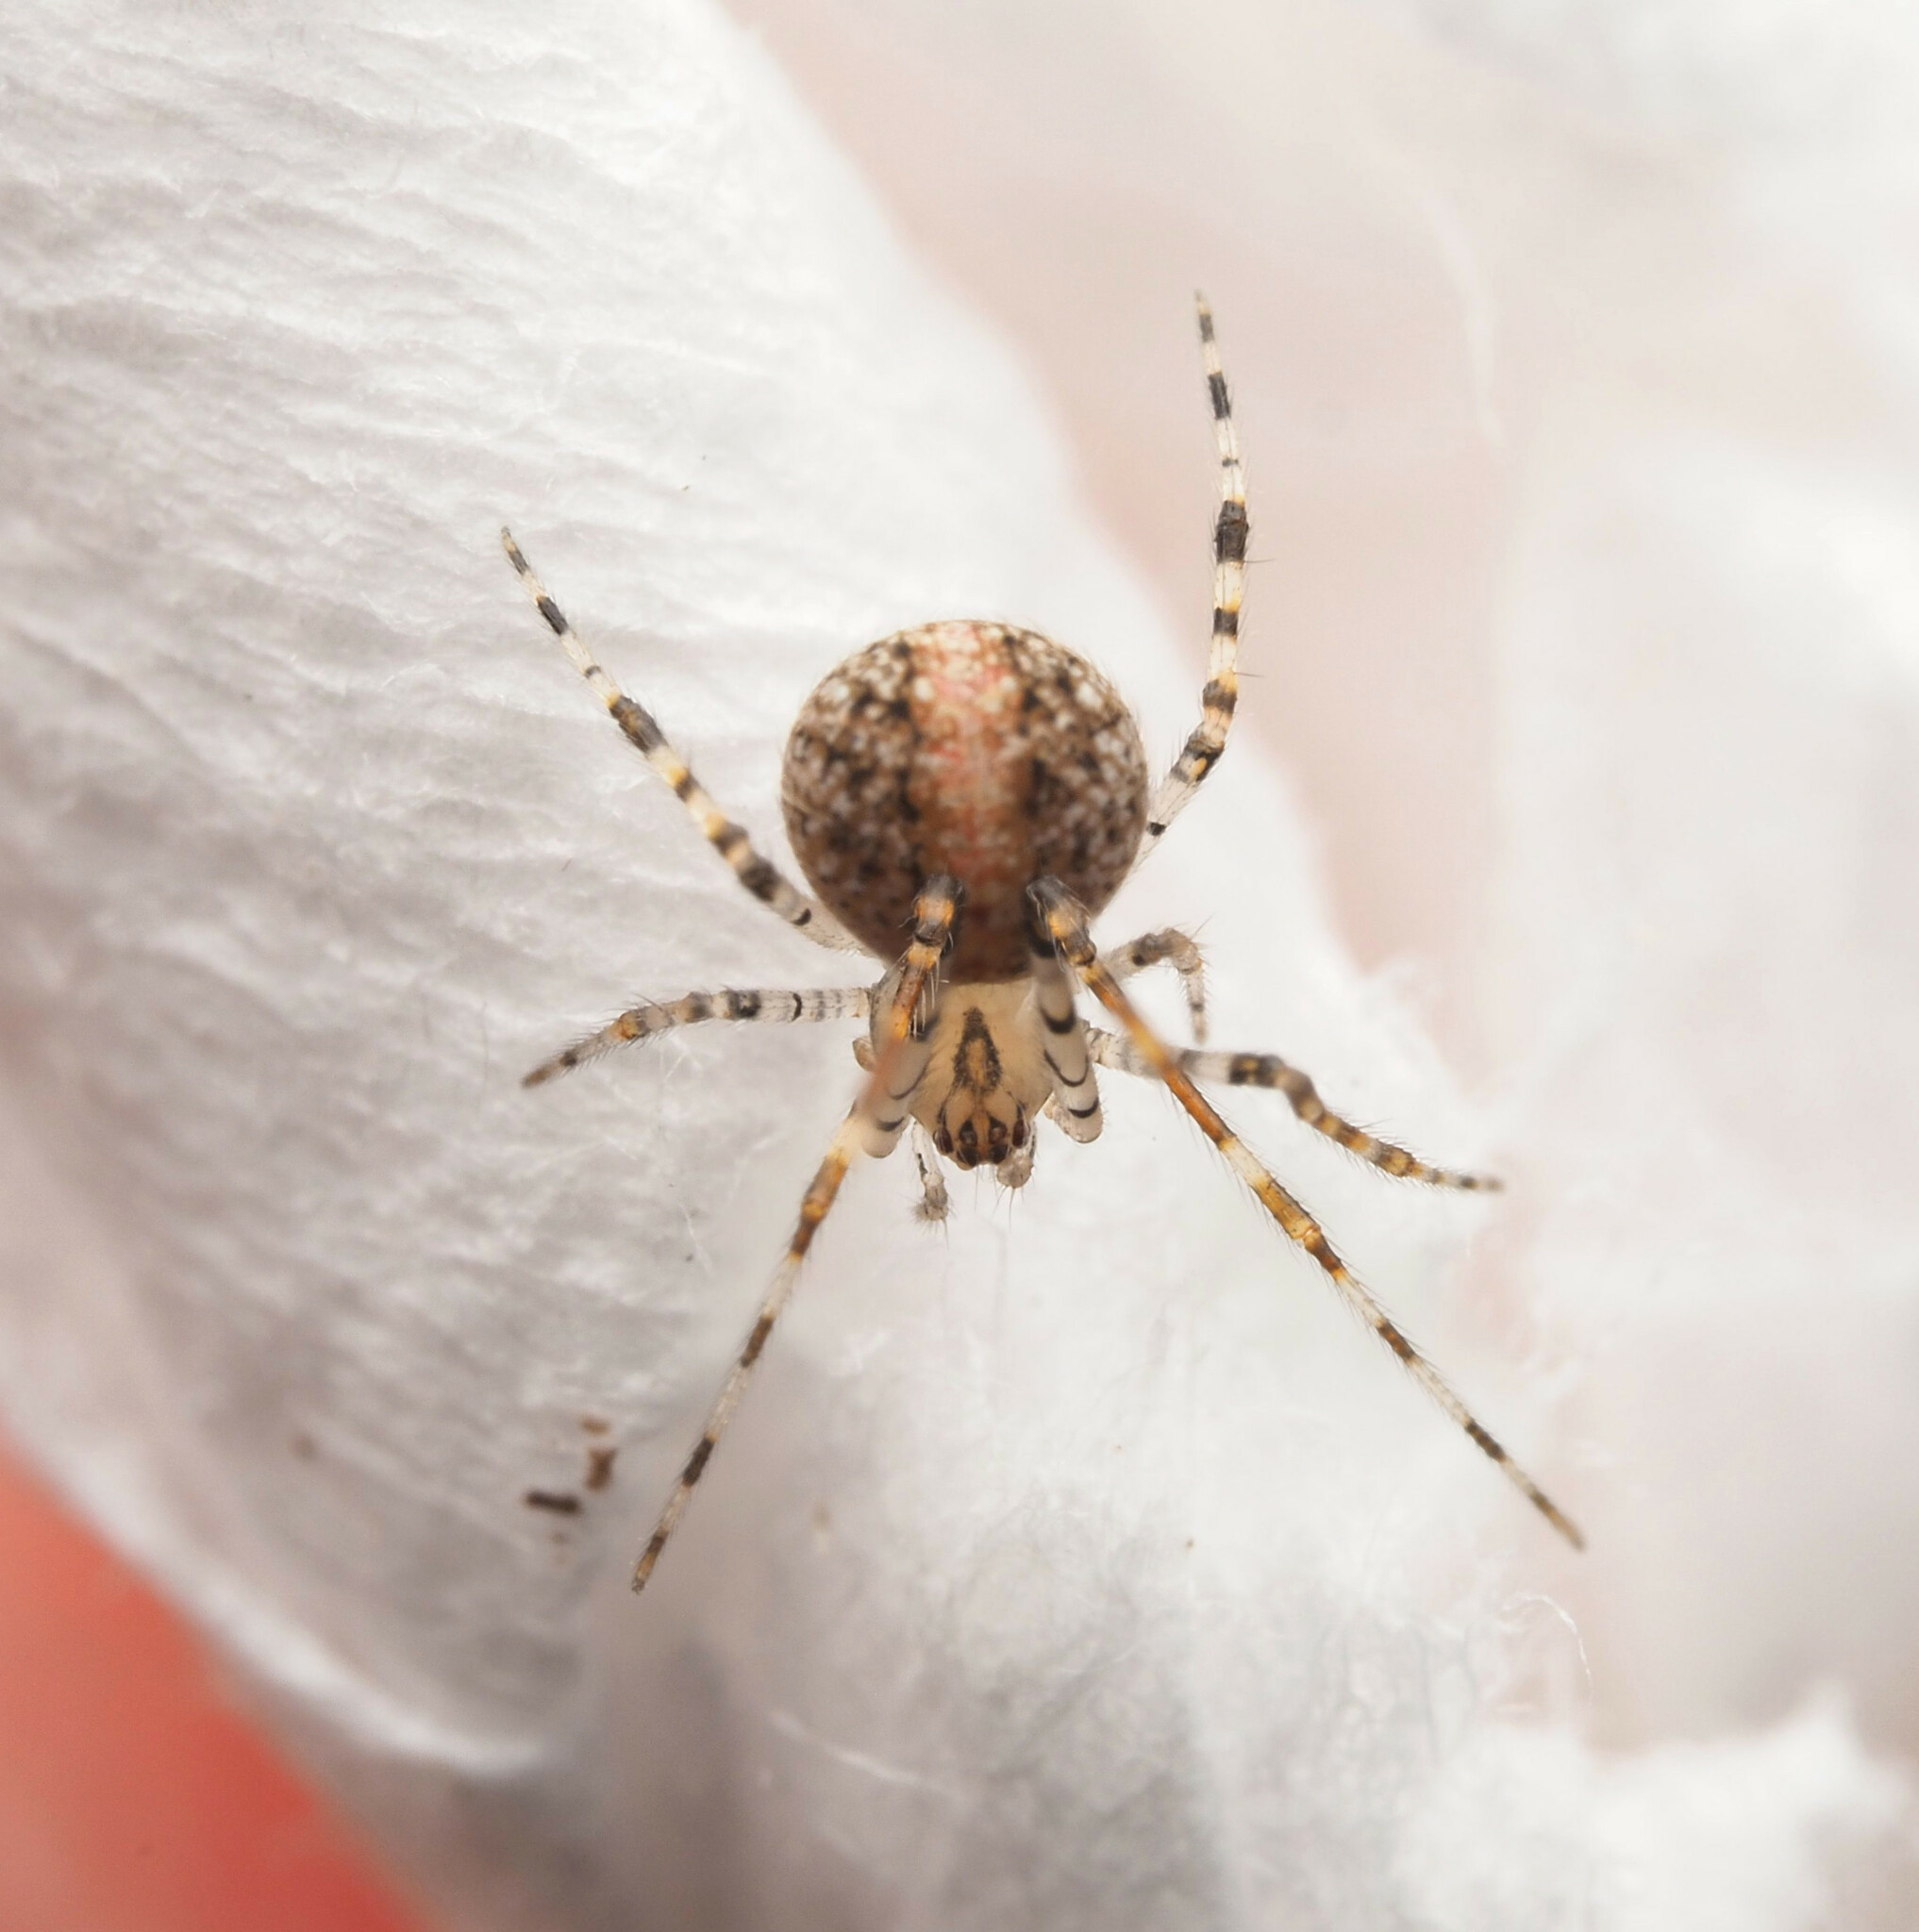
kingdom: Animalia
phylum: Arthropoda
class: Arachnida
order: Araneae
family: Theridiidae
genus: Platnickina
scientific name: Platnickina
